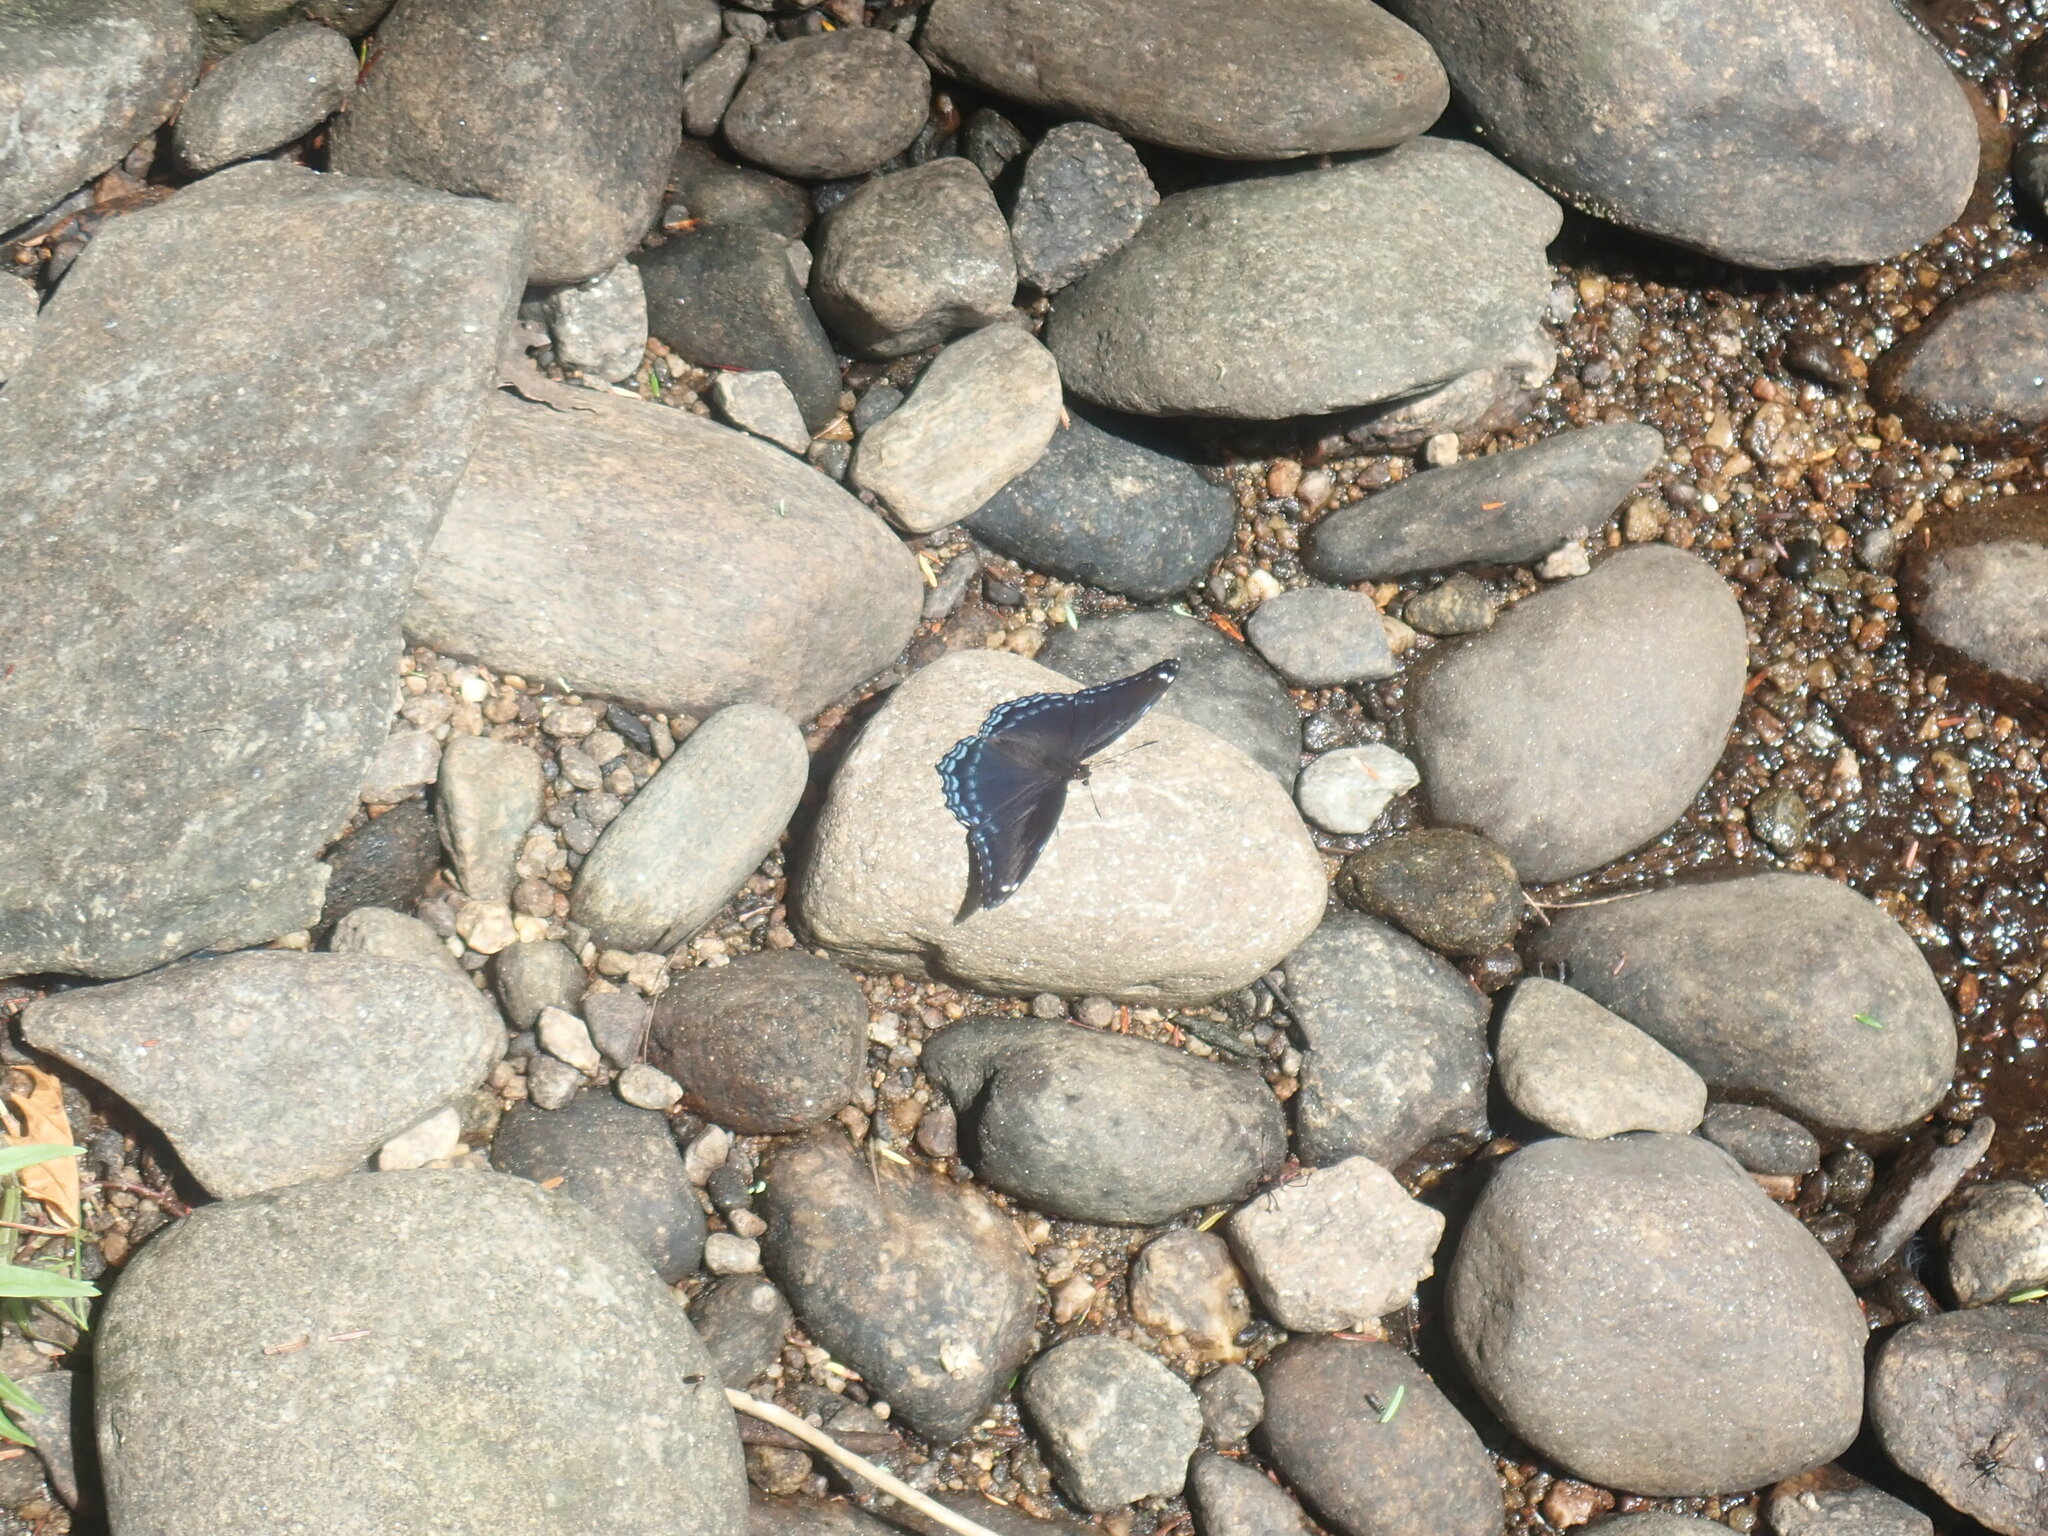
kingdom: Animalia
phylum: Arthropoda
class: Insecta
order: Lepidoptera
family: Nymphalidae
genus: Limenitis
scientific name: Limenitis arthemis
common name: Red-spotted admiral
